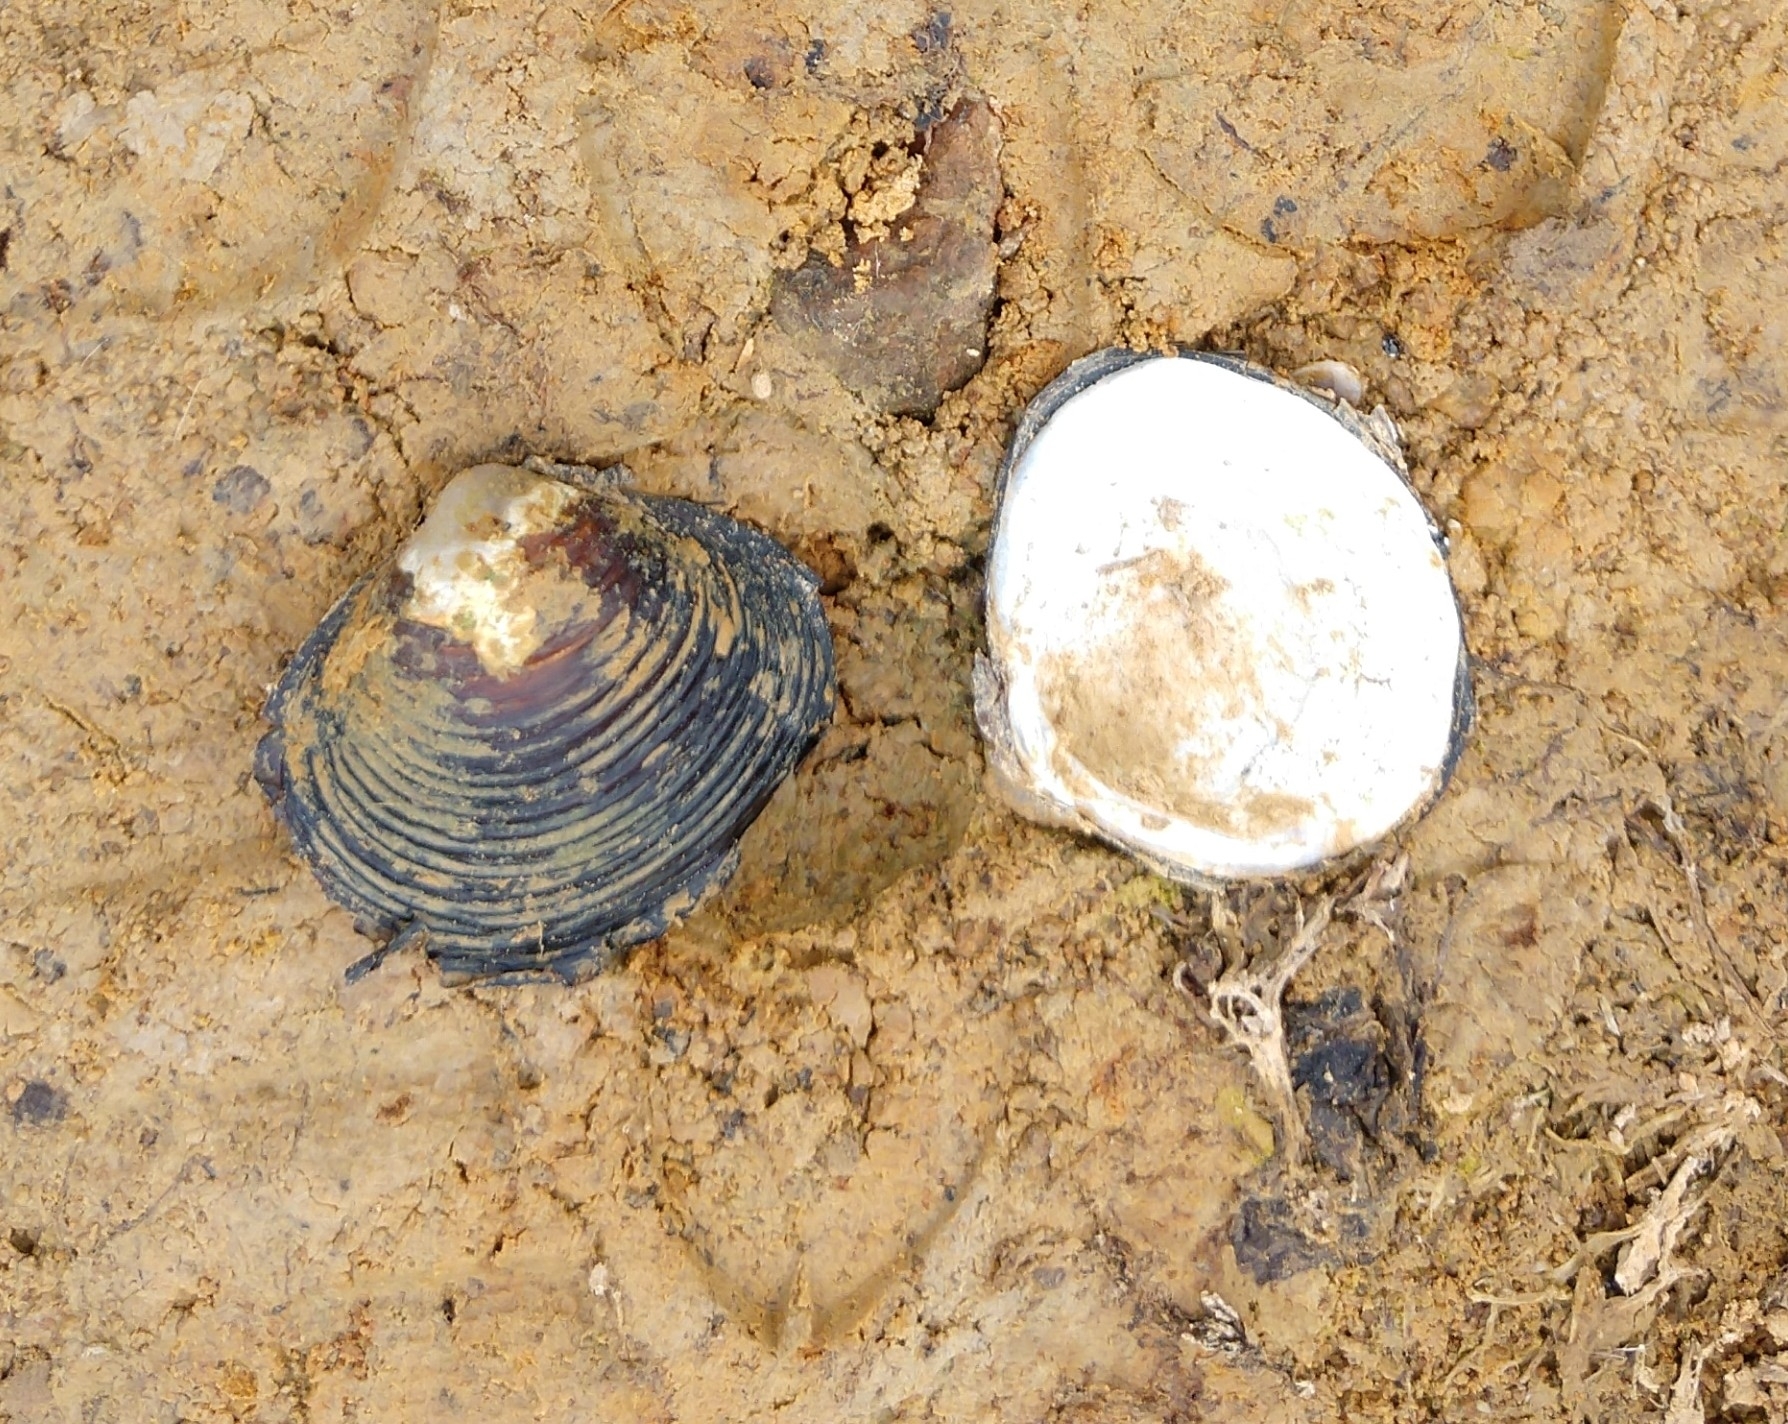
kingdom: Animalia
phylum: Mollusca
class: Bivalvia
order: Venerida
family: Cyrenidae
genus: Corbicula
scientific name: Corbicula fluminea
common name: Asian clam
